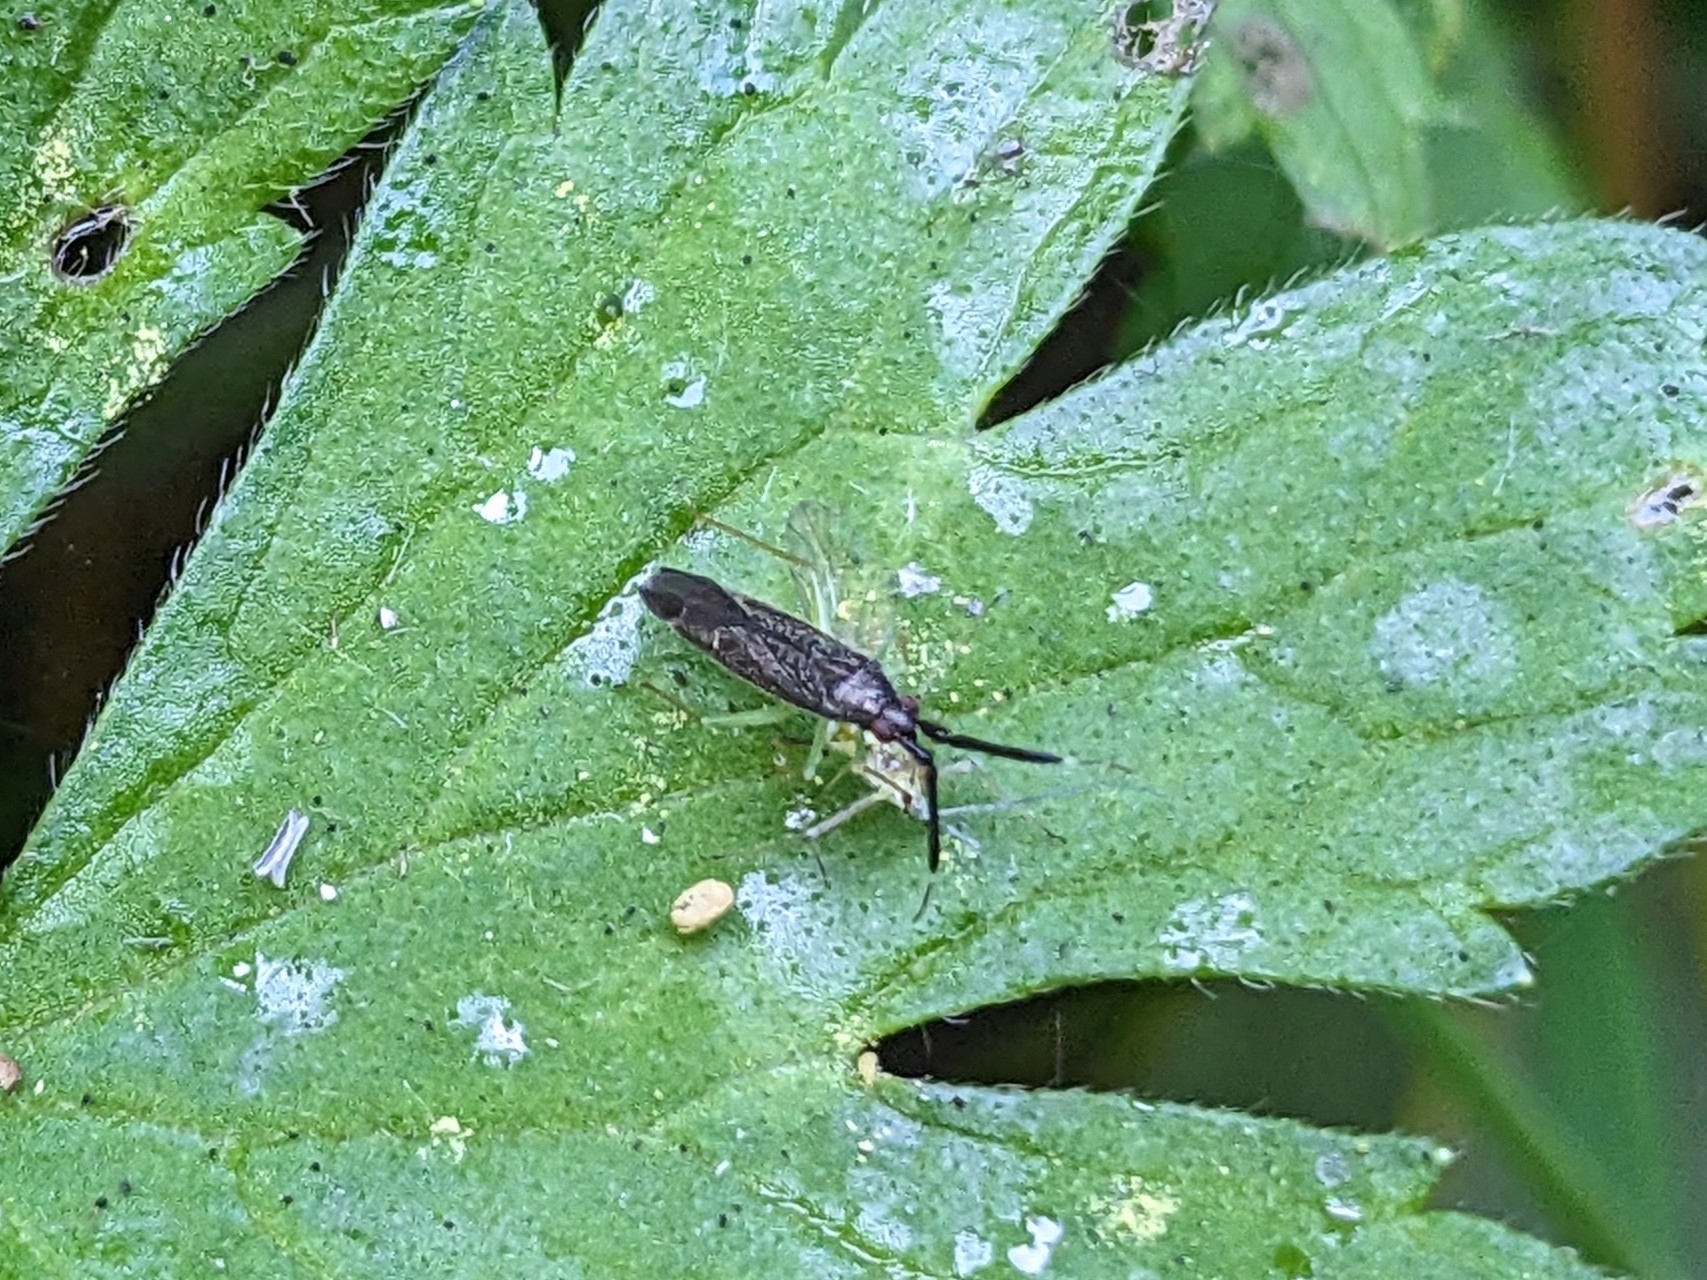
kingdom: Animalia
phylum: Arthropoda
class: Insecta
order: Hemiptera
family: Miridae
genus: Heterotoma
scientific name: Heterotoma planicornis
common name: Plant bug
